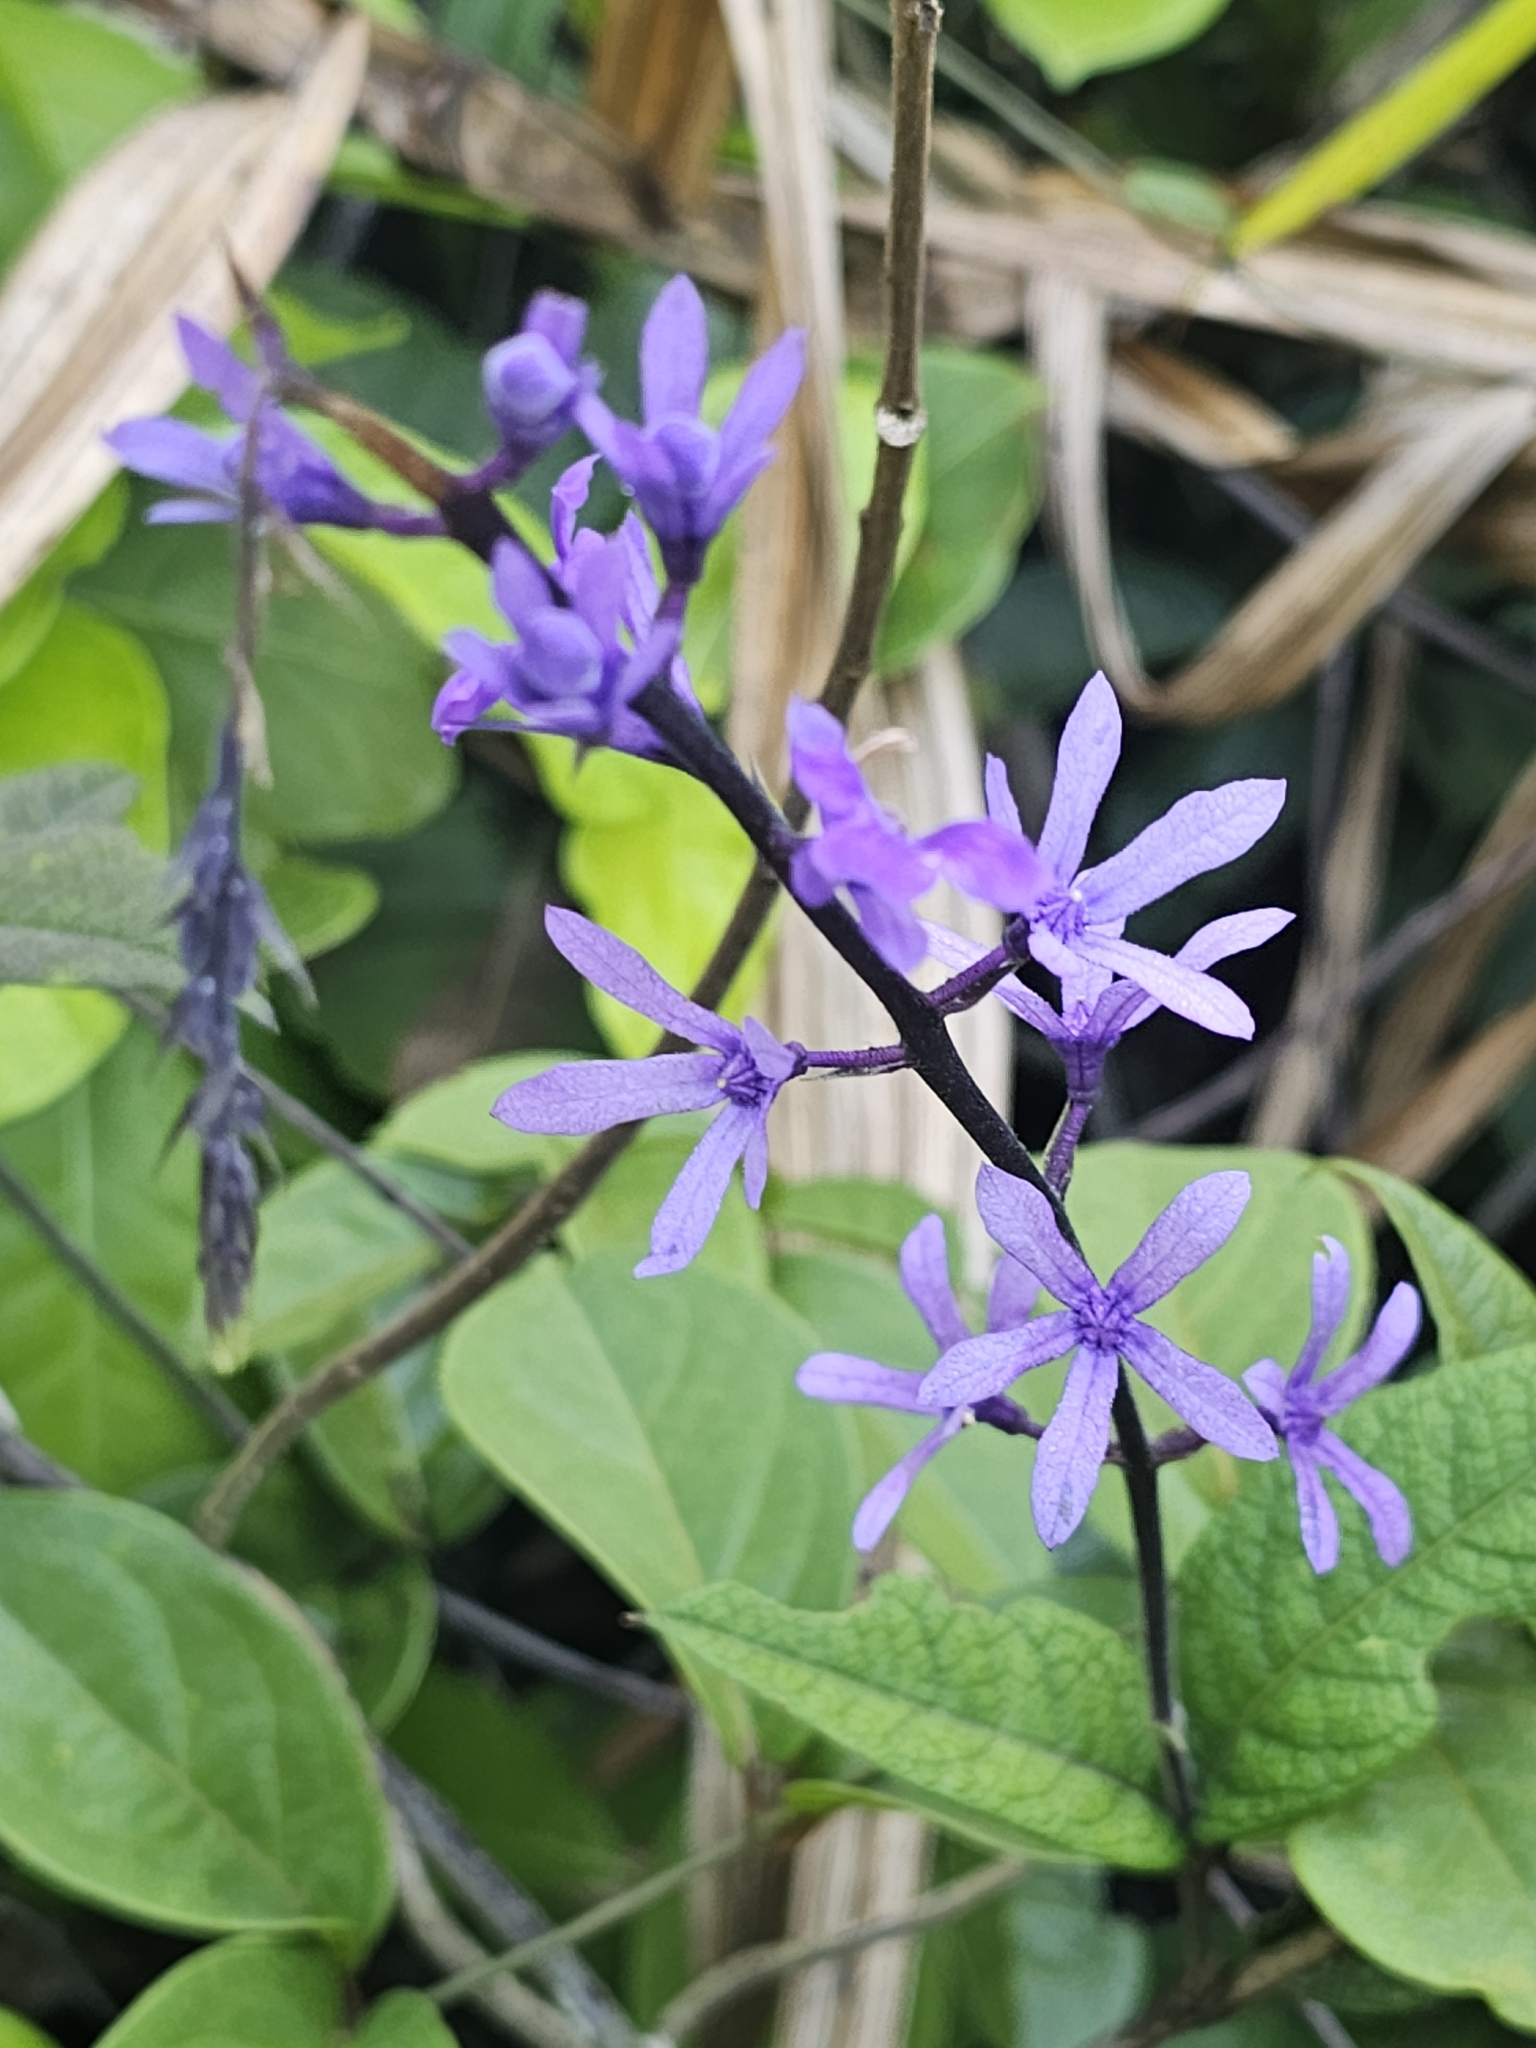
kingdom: Plantae
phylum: Tracheophyta
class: Magnoliopsida
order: Lamiales
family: Verbenaceae
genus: Petrea
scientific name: Petrea bracteata
